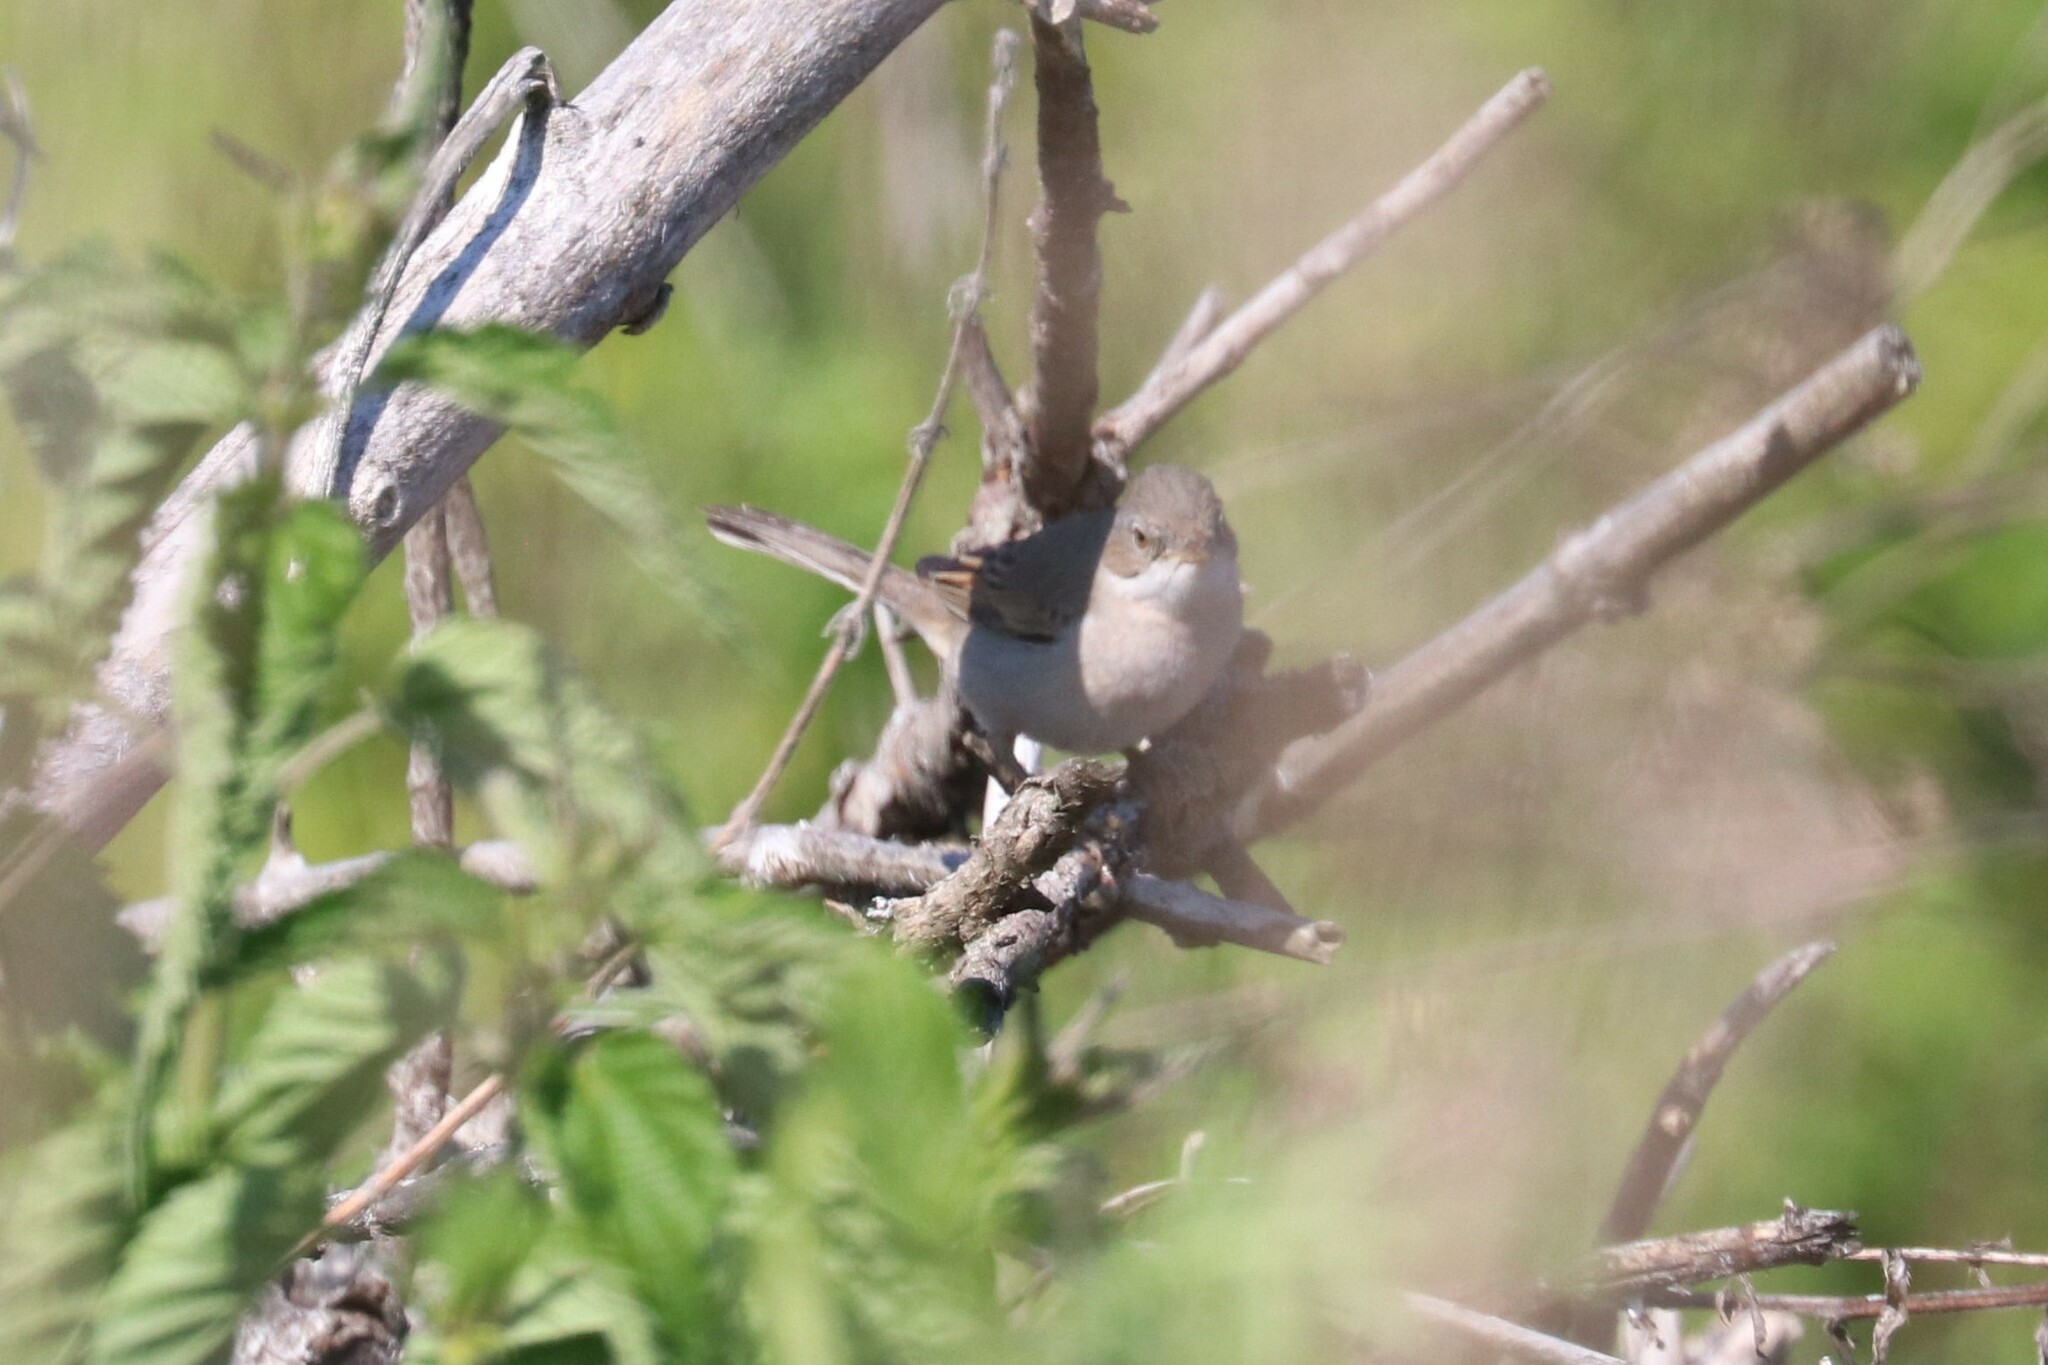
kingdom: Animalia
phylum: Chordata
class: Aves
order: Passeriformes
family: Sylviidae
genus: Sylvia
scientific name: Sylvia communis
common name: Common whitethroat
